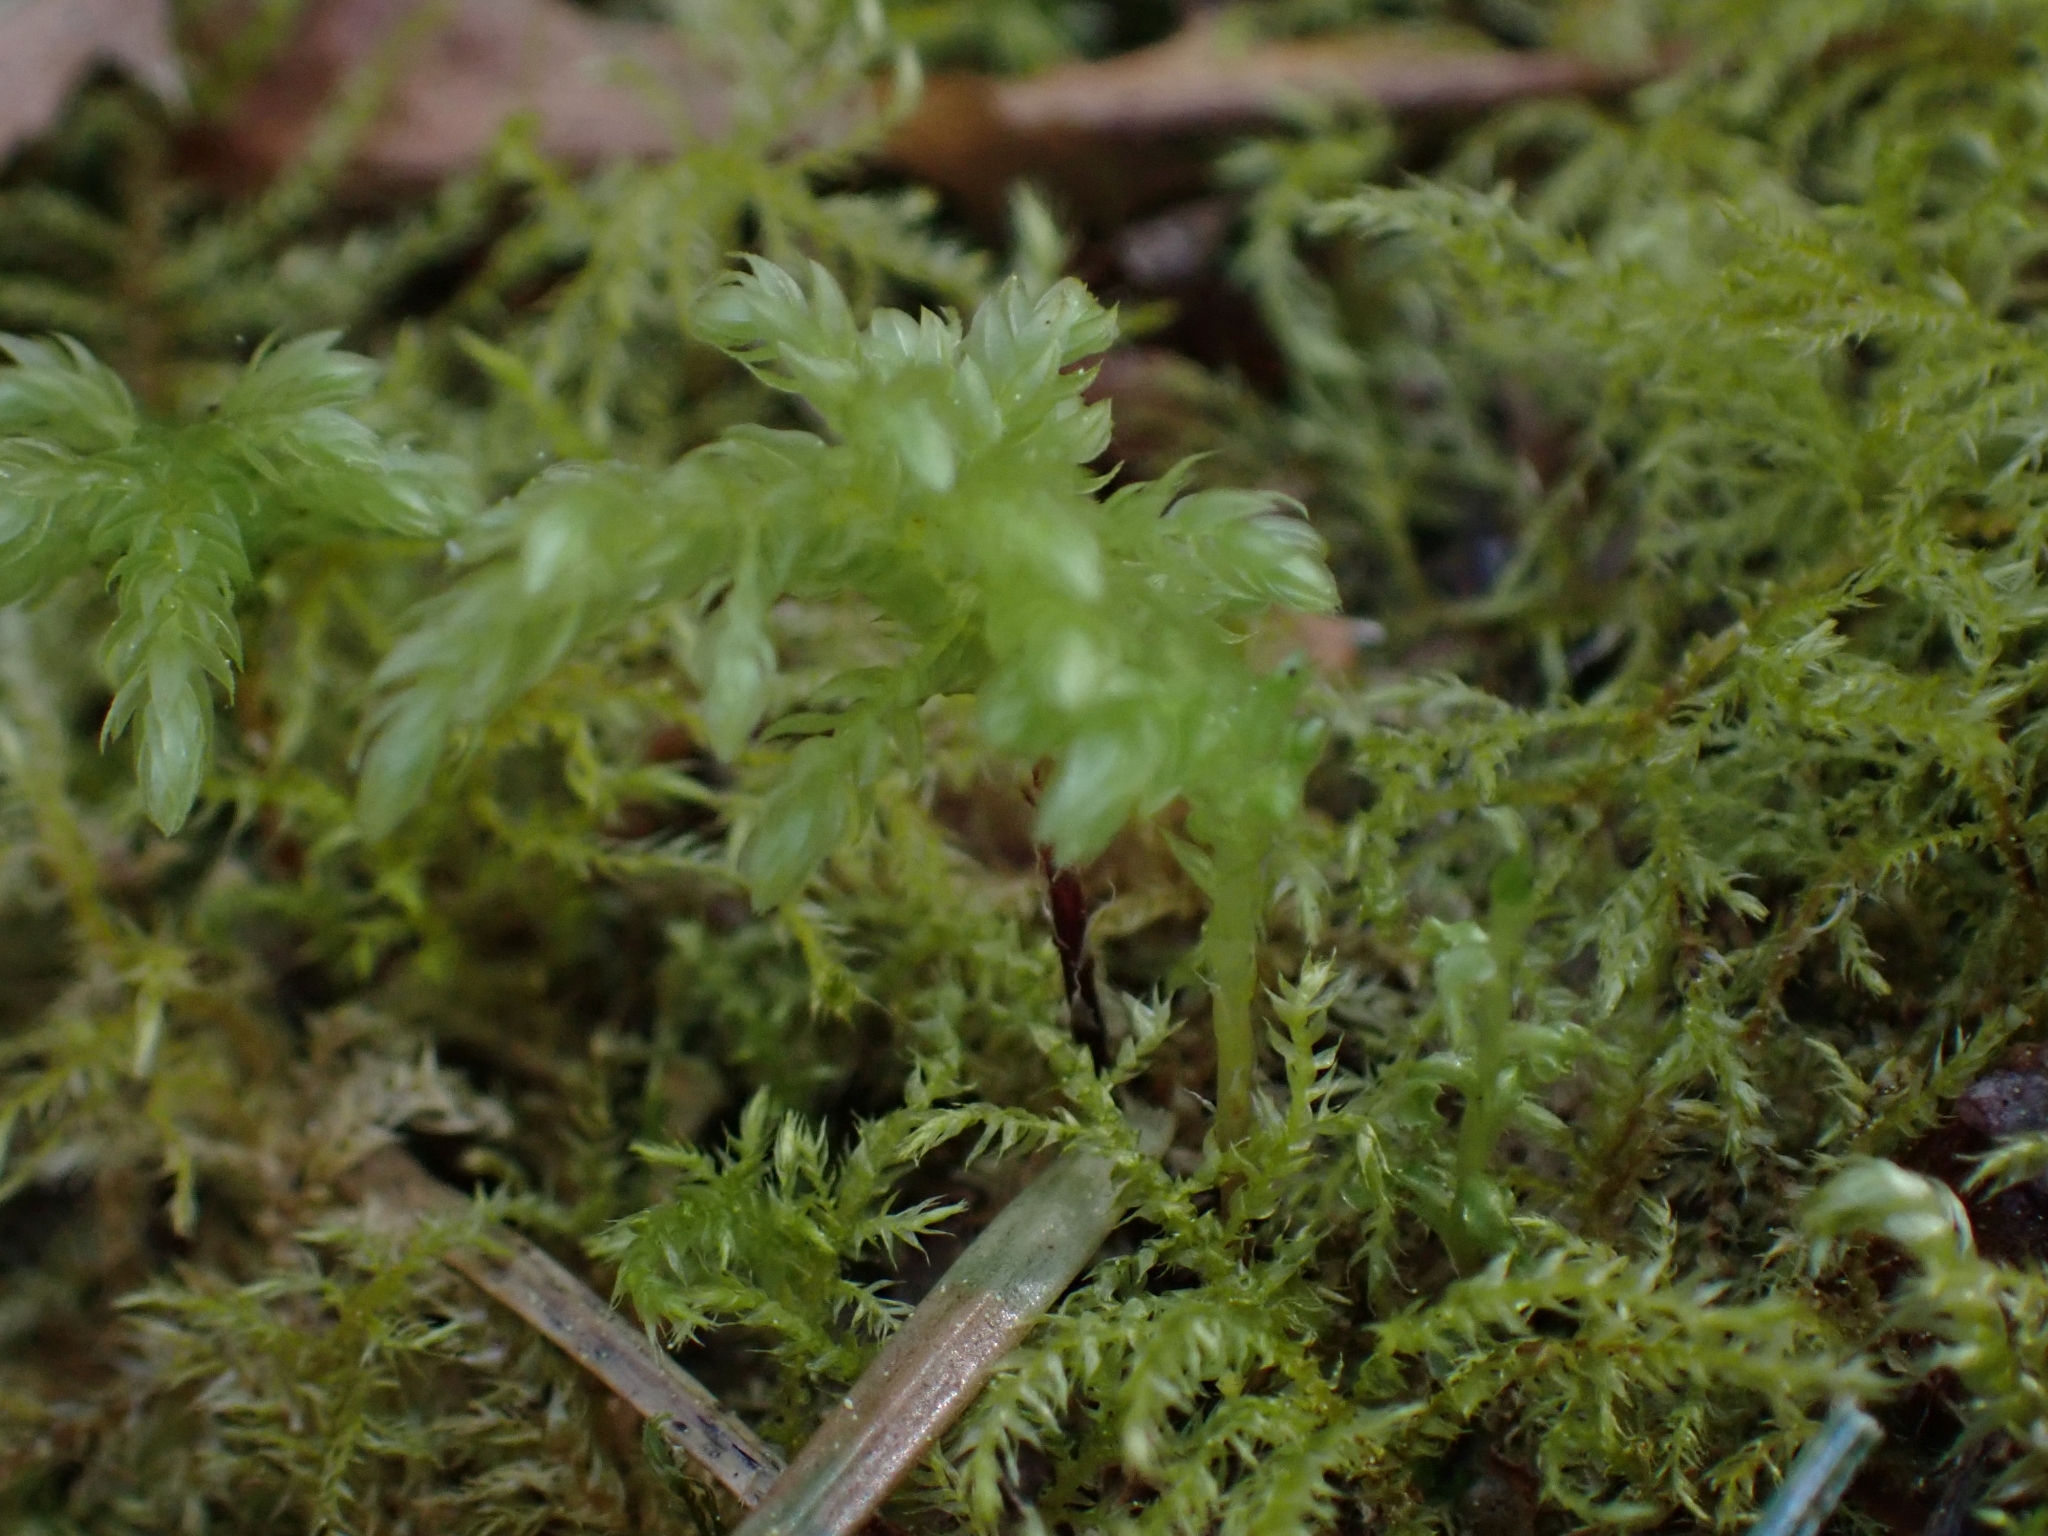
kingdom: Plantae
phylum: Bryophyta
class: Bryopsida
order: Bryales
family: Mniaceae
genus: Leucolepis
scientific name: Leucolepis acanthoneura
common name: Leucolepis umbrella moss
